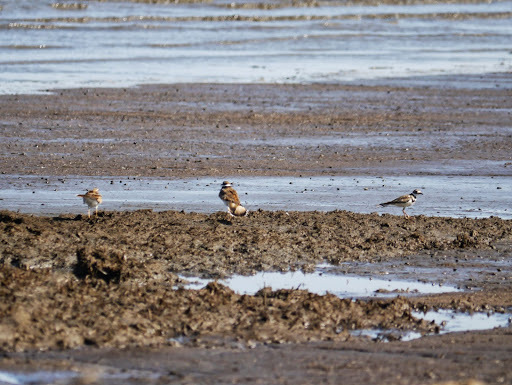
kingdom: Animalia
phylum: Chordata
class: Aves
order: Charadriiformes
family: Charadriidae
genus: Charadrius
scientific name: Charadrius vociferus
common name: Killdeer
